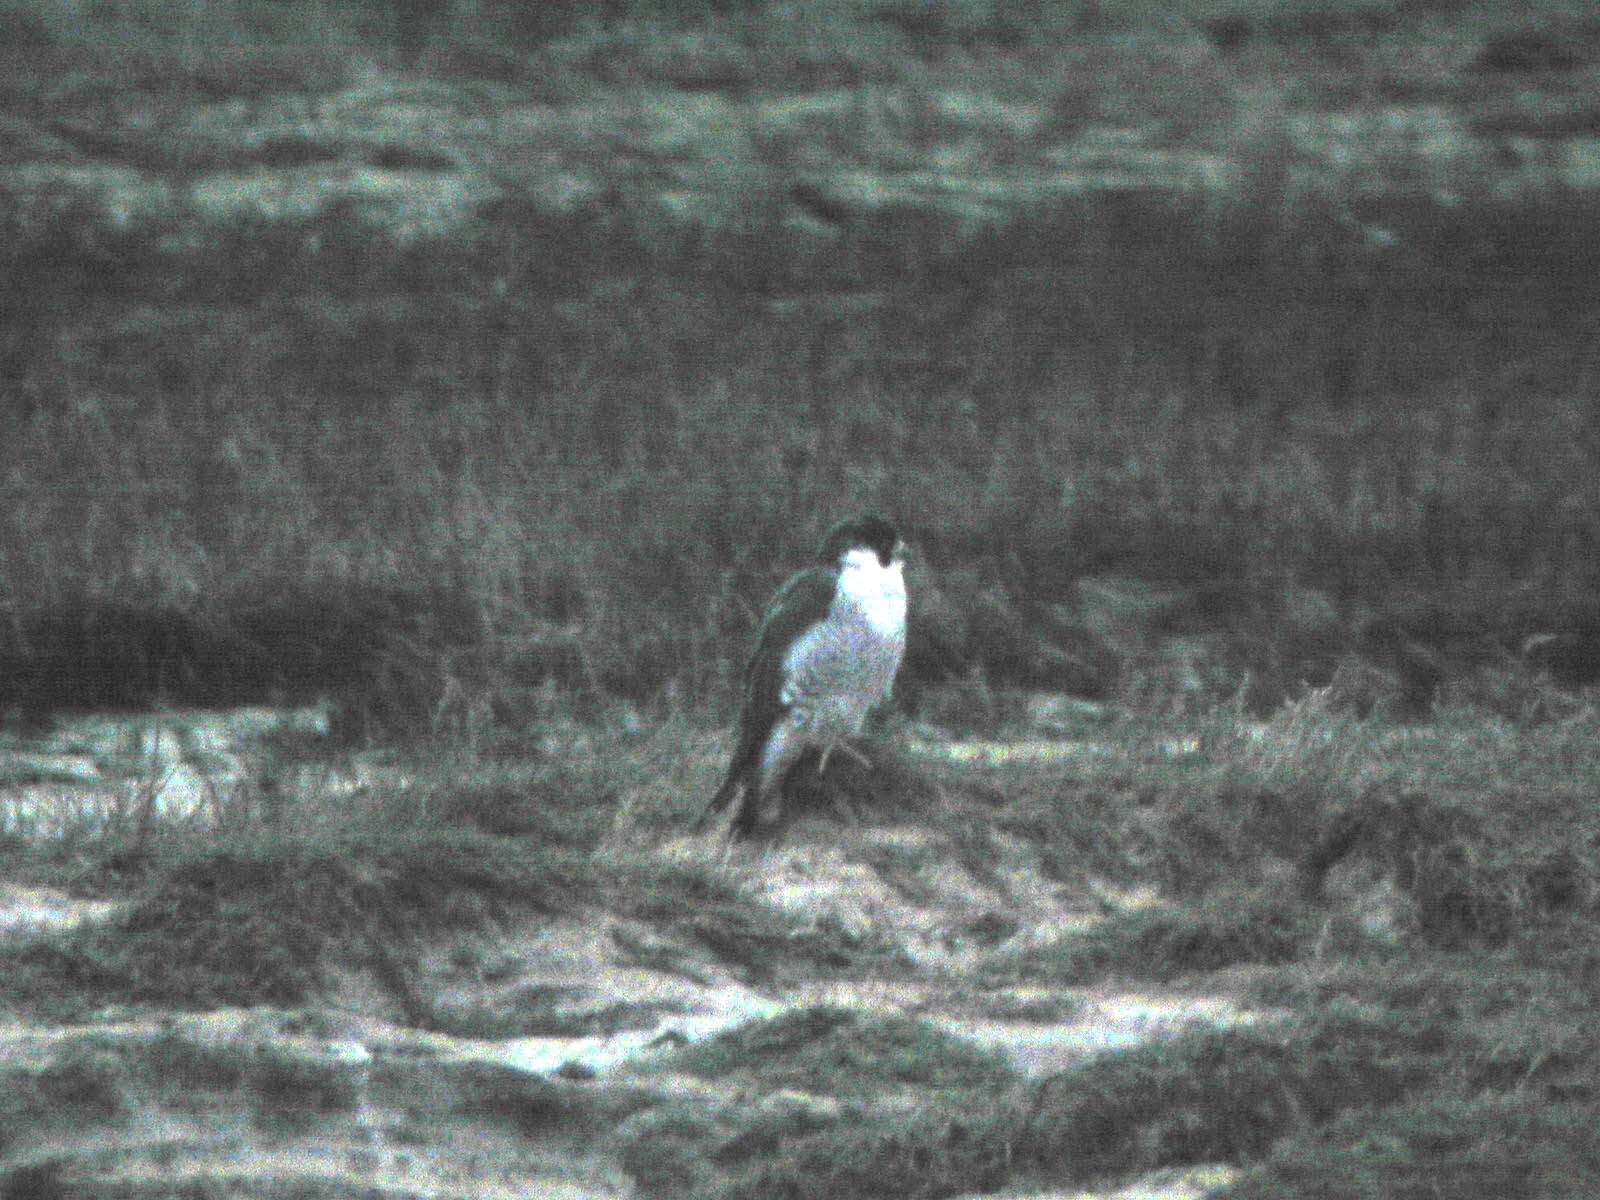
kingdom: Animalia
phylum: Chordata
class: Aves
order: Falconiformes
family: Falconidae
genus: Falco
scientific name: Falco peregrinus
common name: Peregrine falcon
